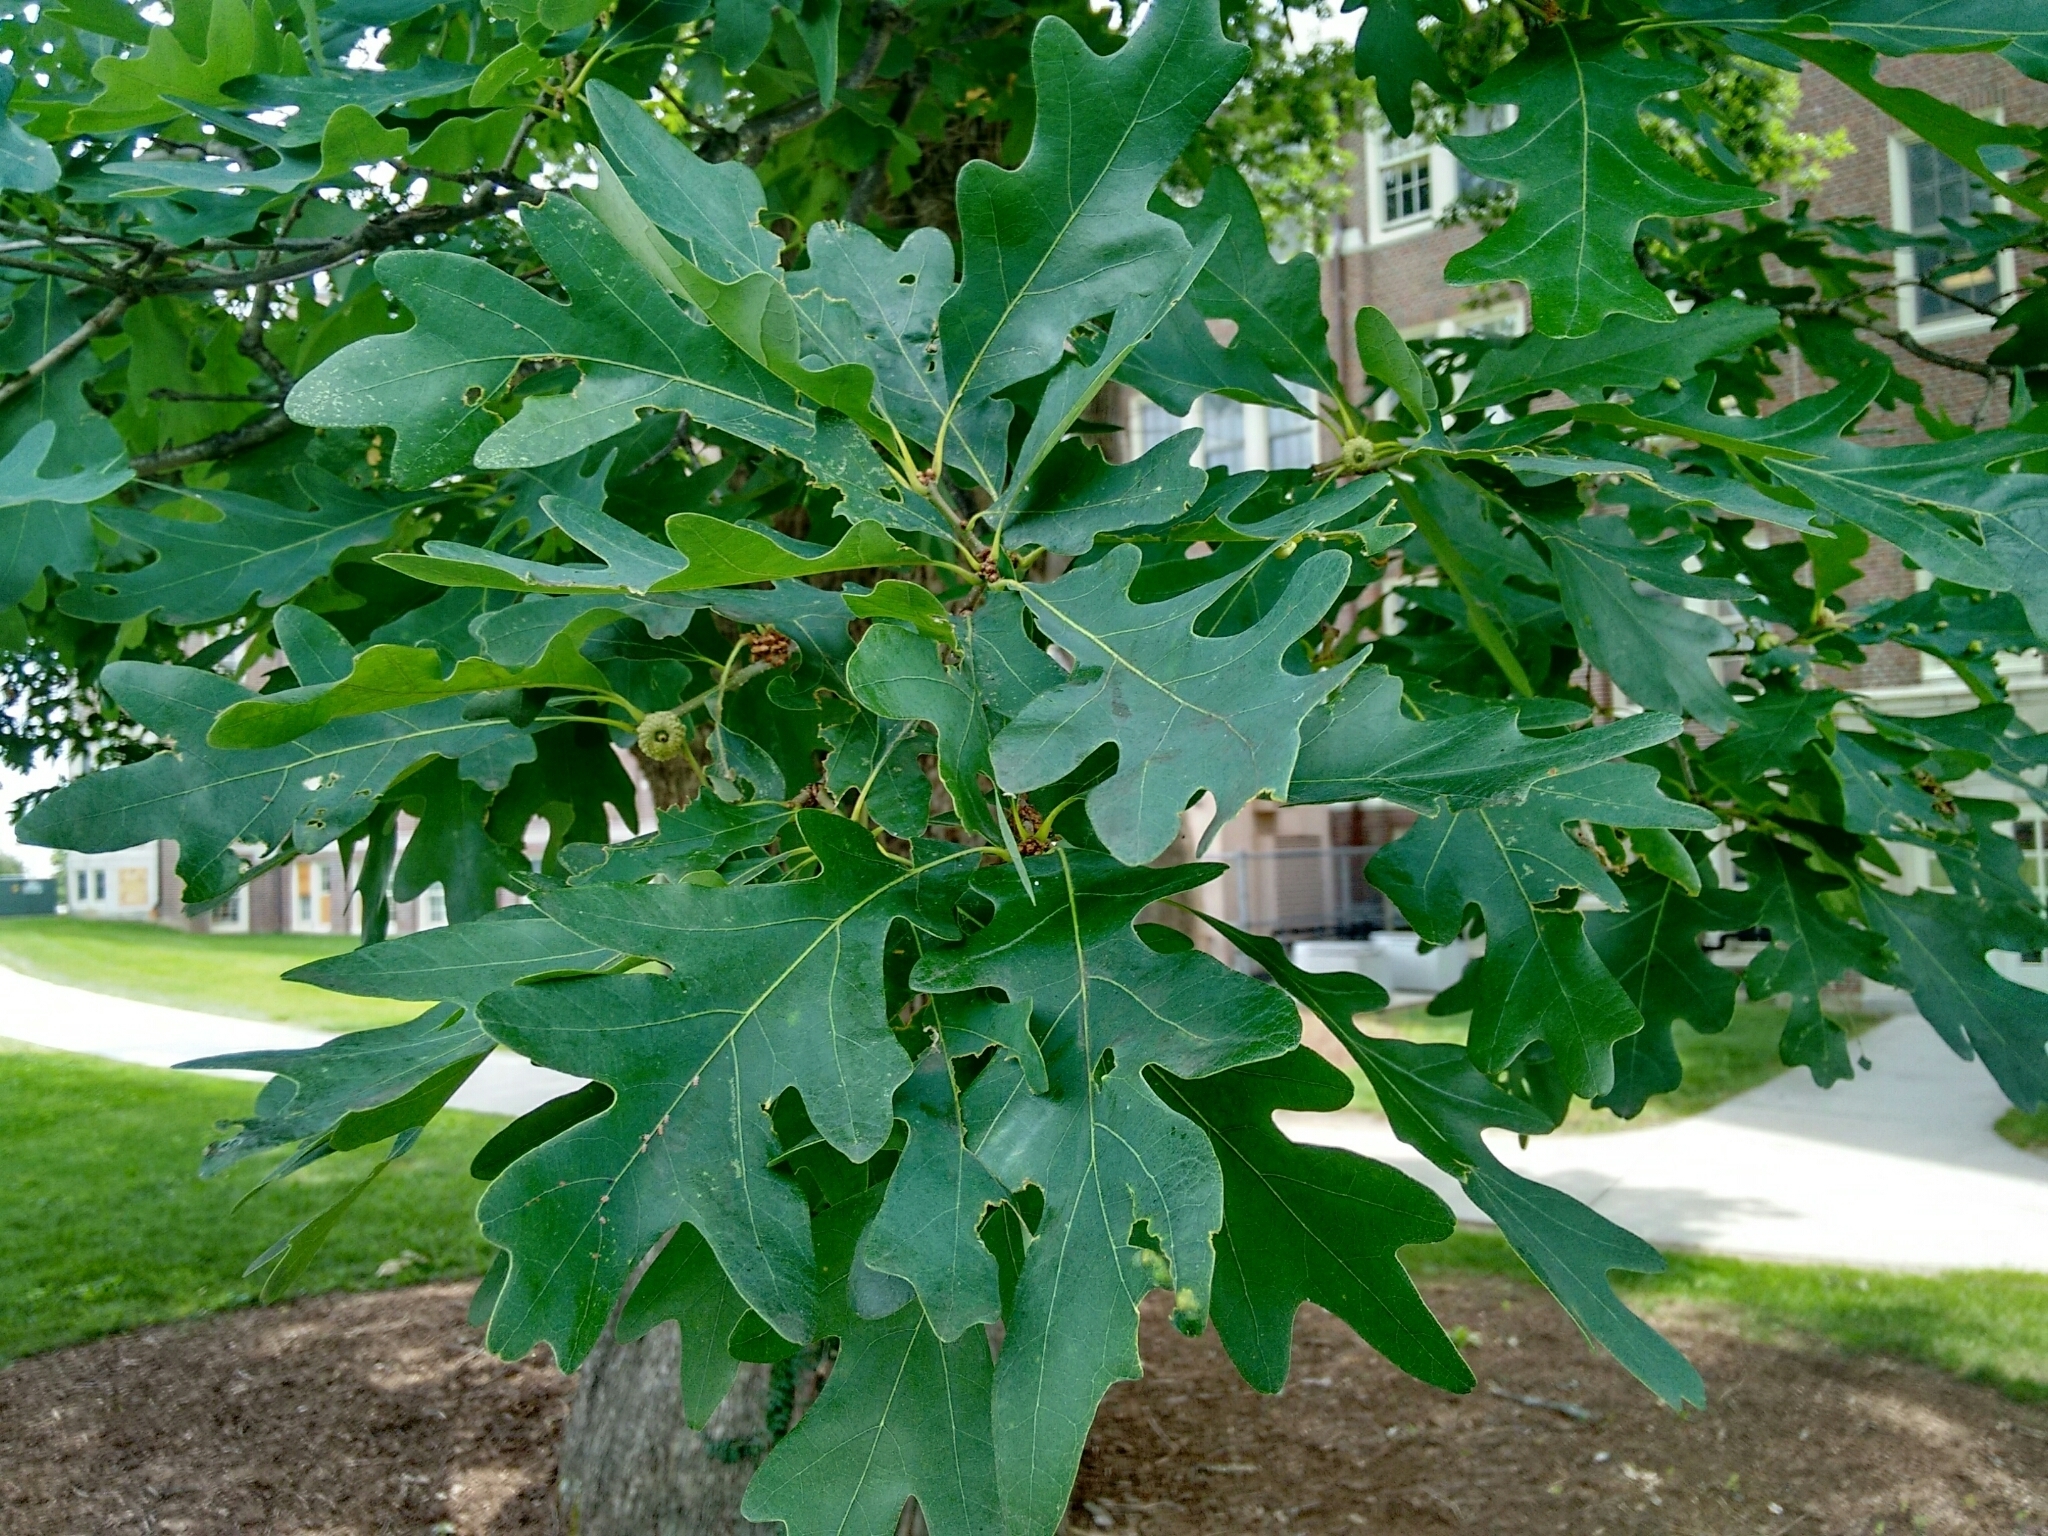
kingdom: Plantae
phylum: Tracheophyta
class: Magnoliopsida
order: Fagales
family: Fagaceae
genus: Quercus
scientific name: Quercus alba
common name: White oak
